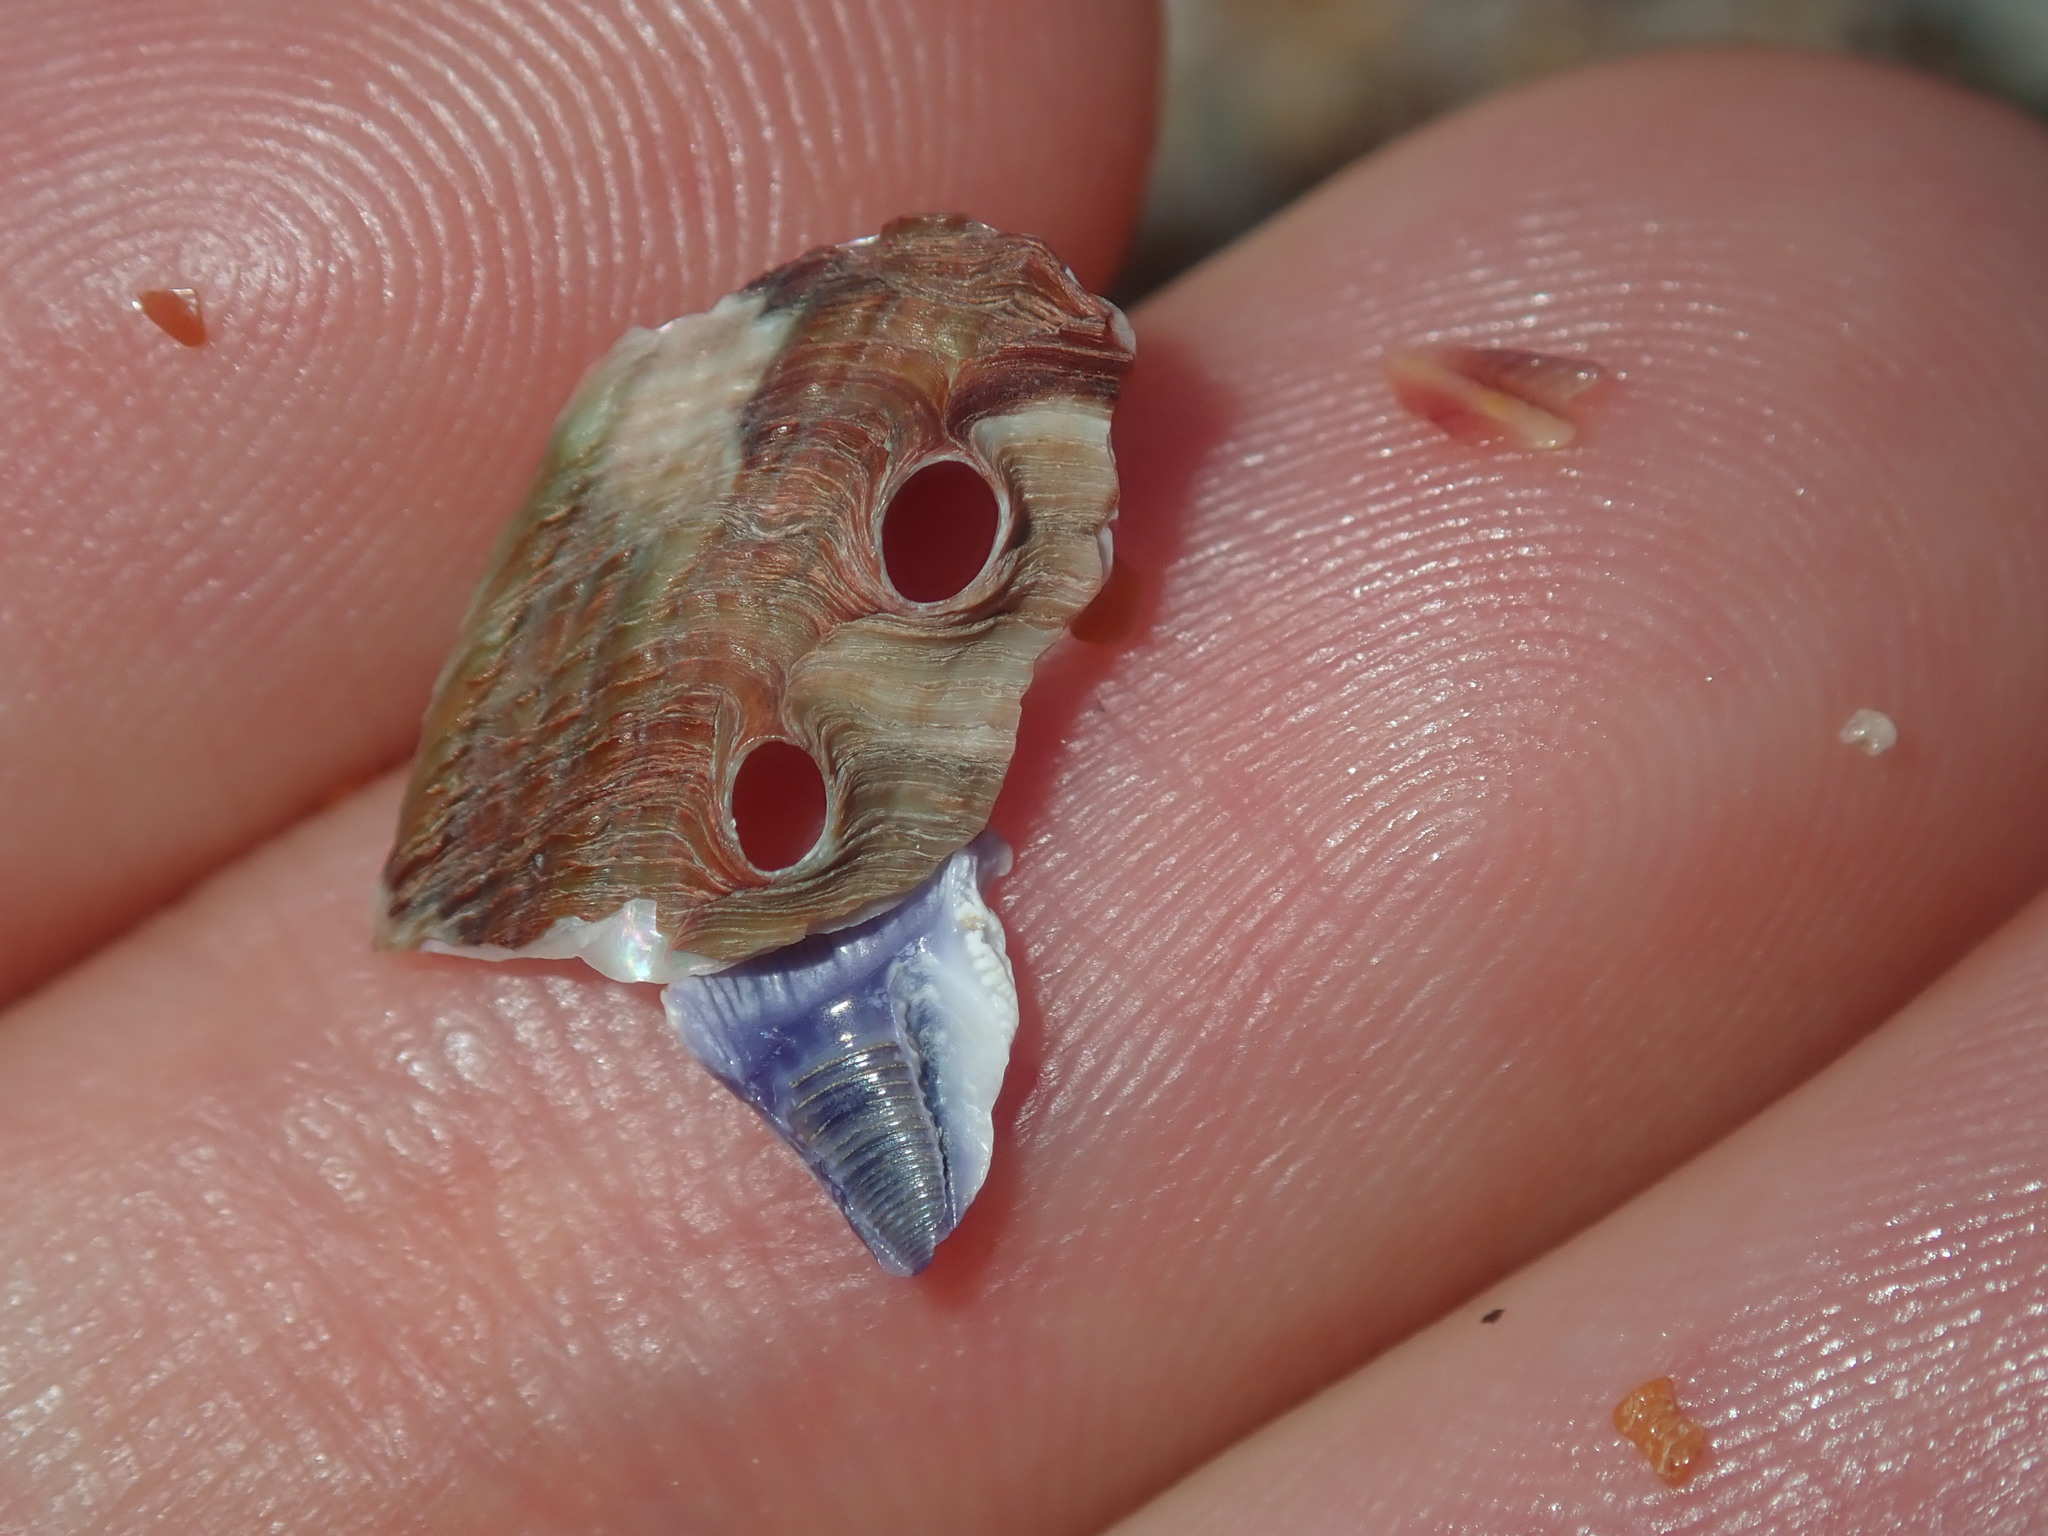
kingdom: Animalia
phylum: Mollusca
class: Gastropoda
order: Lepetellida
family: Haliotidae
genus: Haliotis
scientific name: Haliotis coccoradiata
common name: Reddish-rayed abalone
